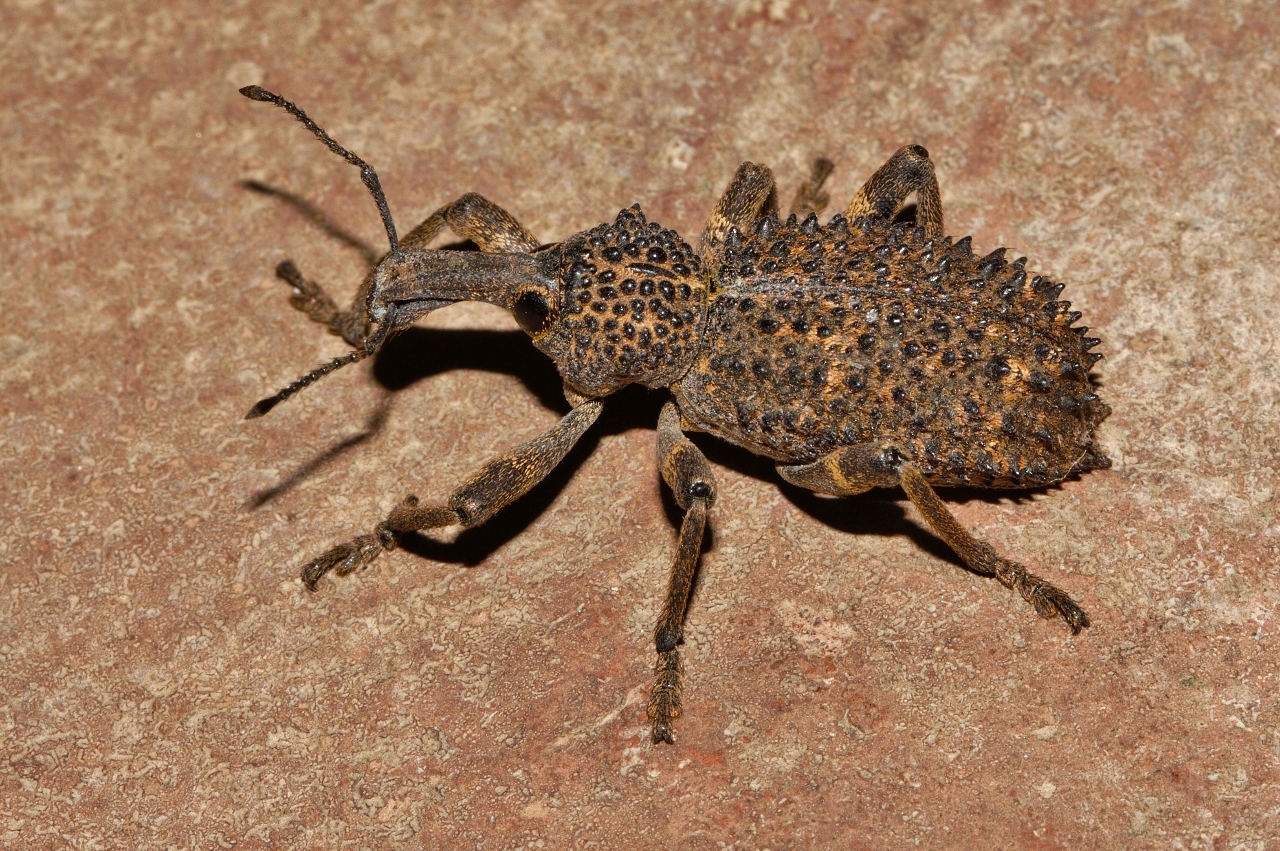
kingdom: Animalia
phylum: Arthropoda
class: Insecta
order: Coleoptera
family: Curculionidae
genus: Bronchus
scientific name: Bronchus furvus
